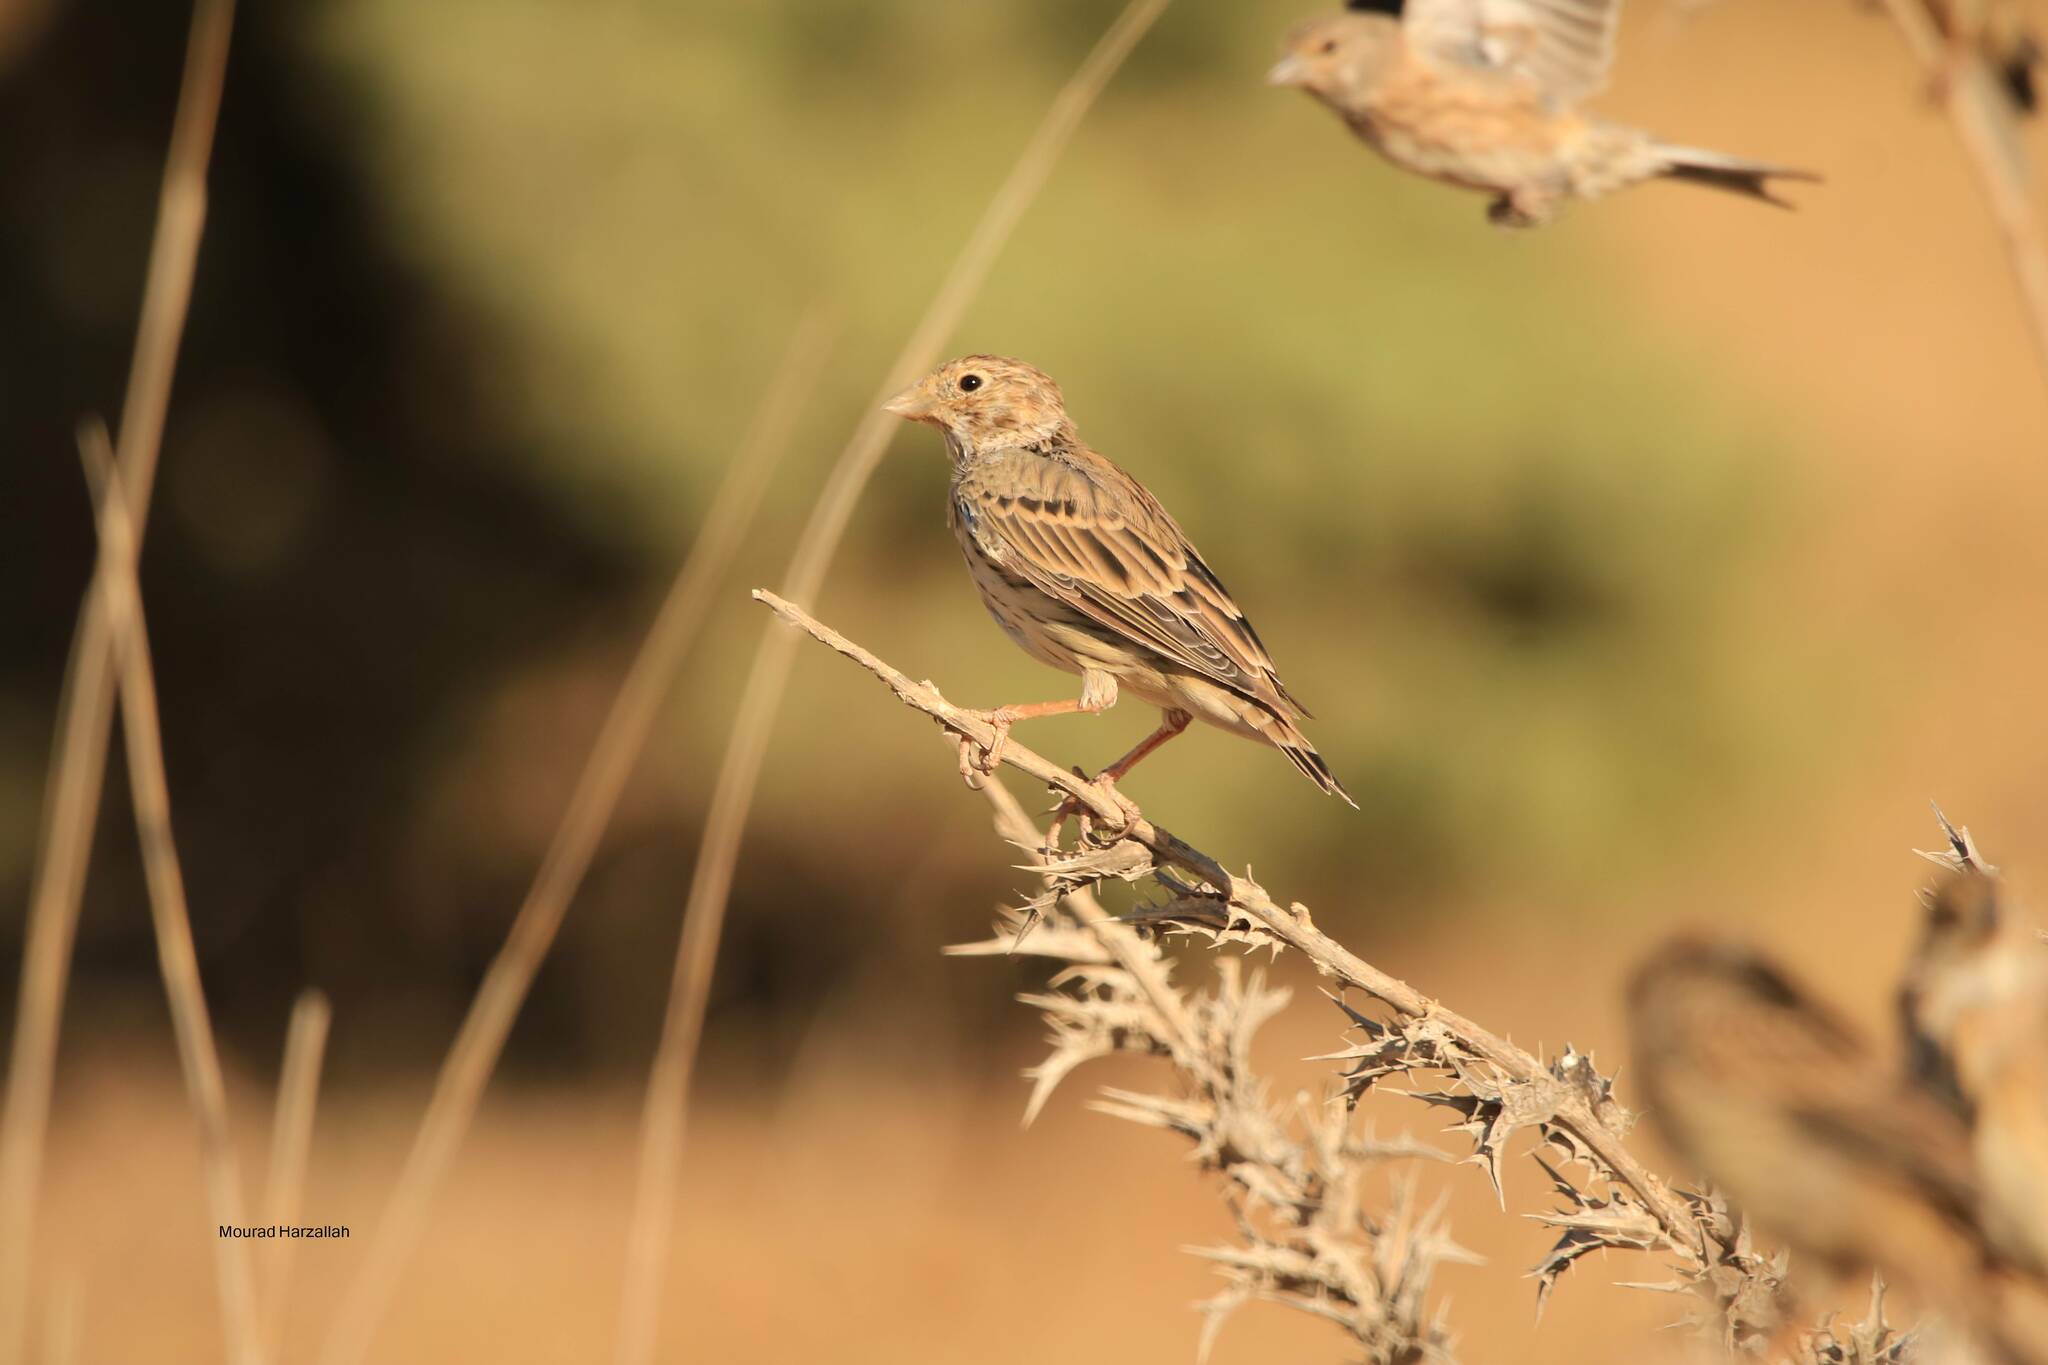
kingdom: Animalia
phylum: Chordata
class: Aves
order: Passeriformes
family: Emberizidae
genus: Emberiza
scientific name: Emberiza calandra
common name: Corn bunting
